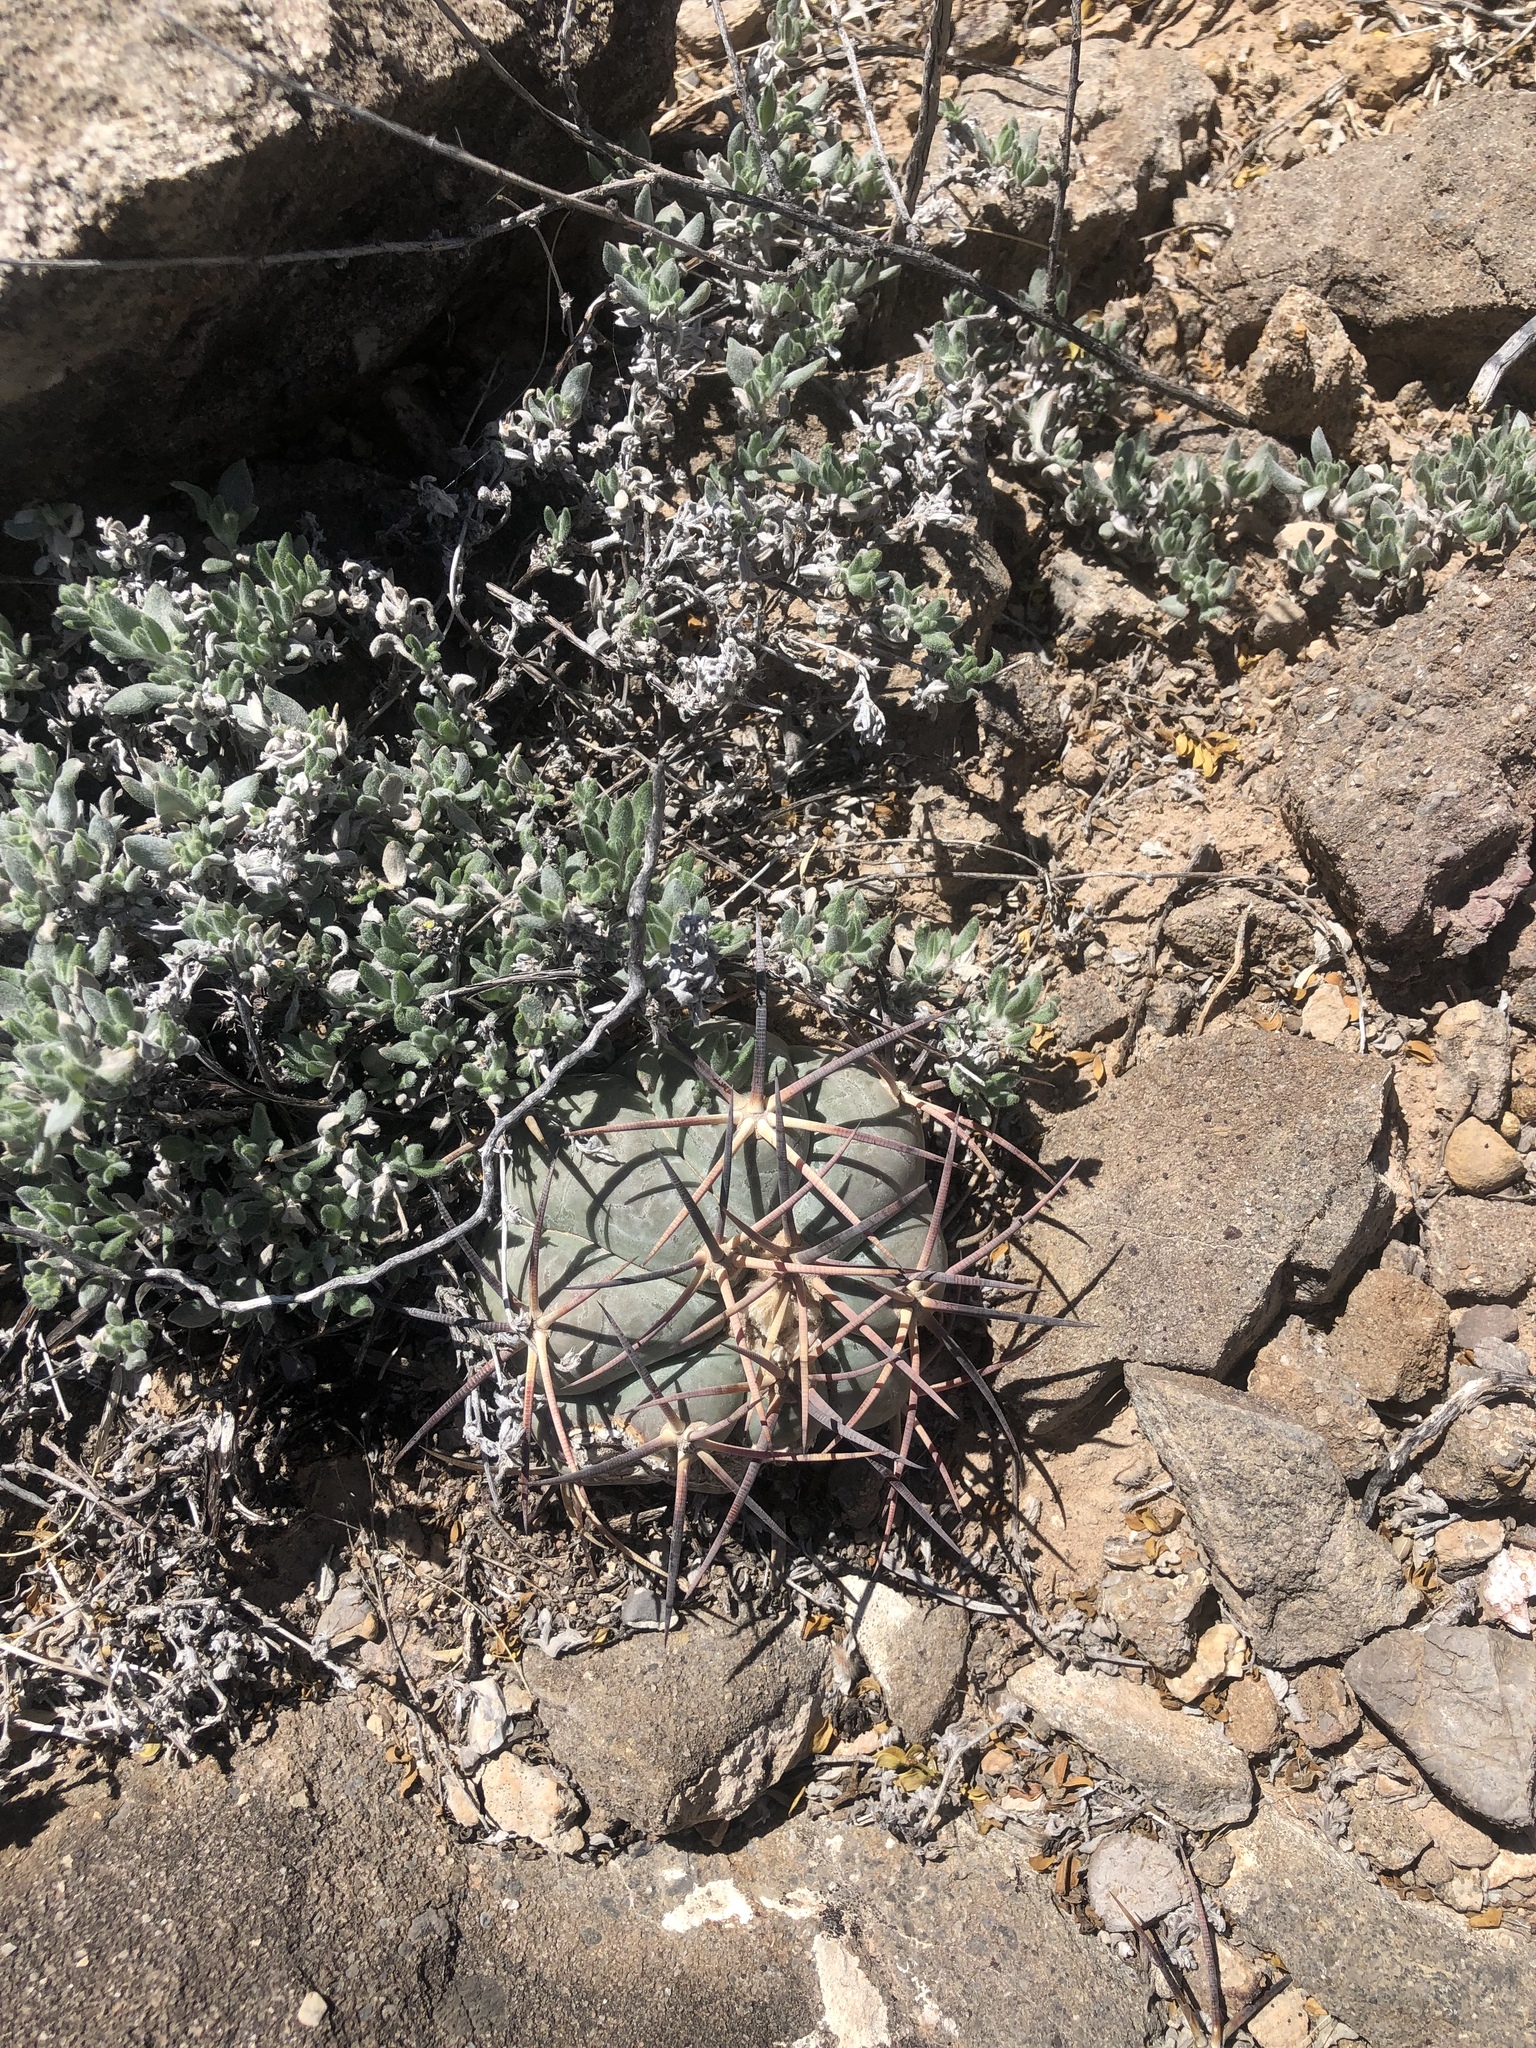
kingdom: Plantae
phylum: Tracheophyta
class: Magnoliopsida
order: Caryophyllales
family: Cactaceae
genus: Echinocactus
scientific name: Echinocactus horizonthalonius
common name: Devilshead
